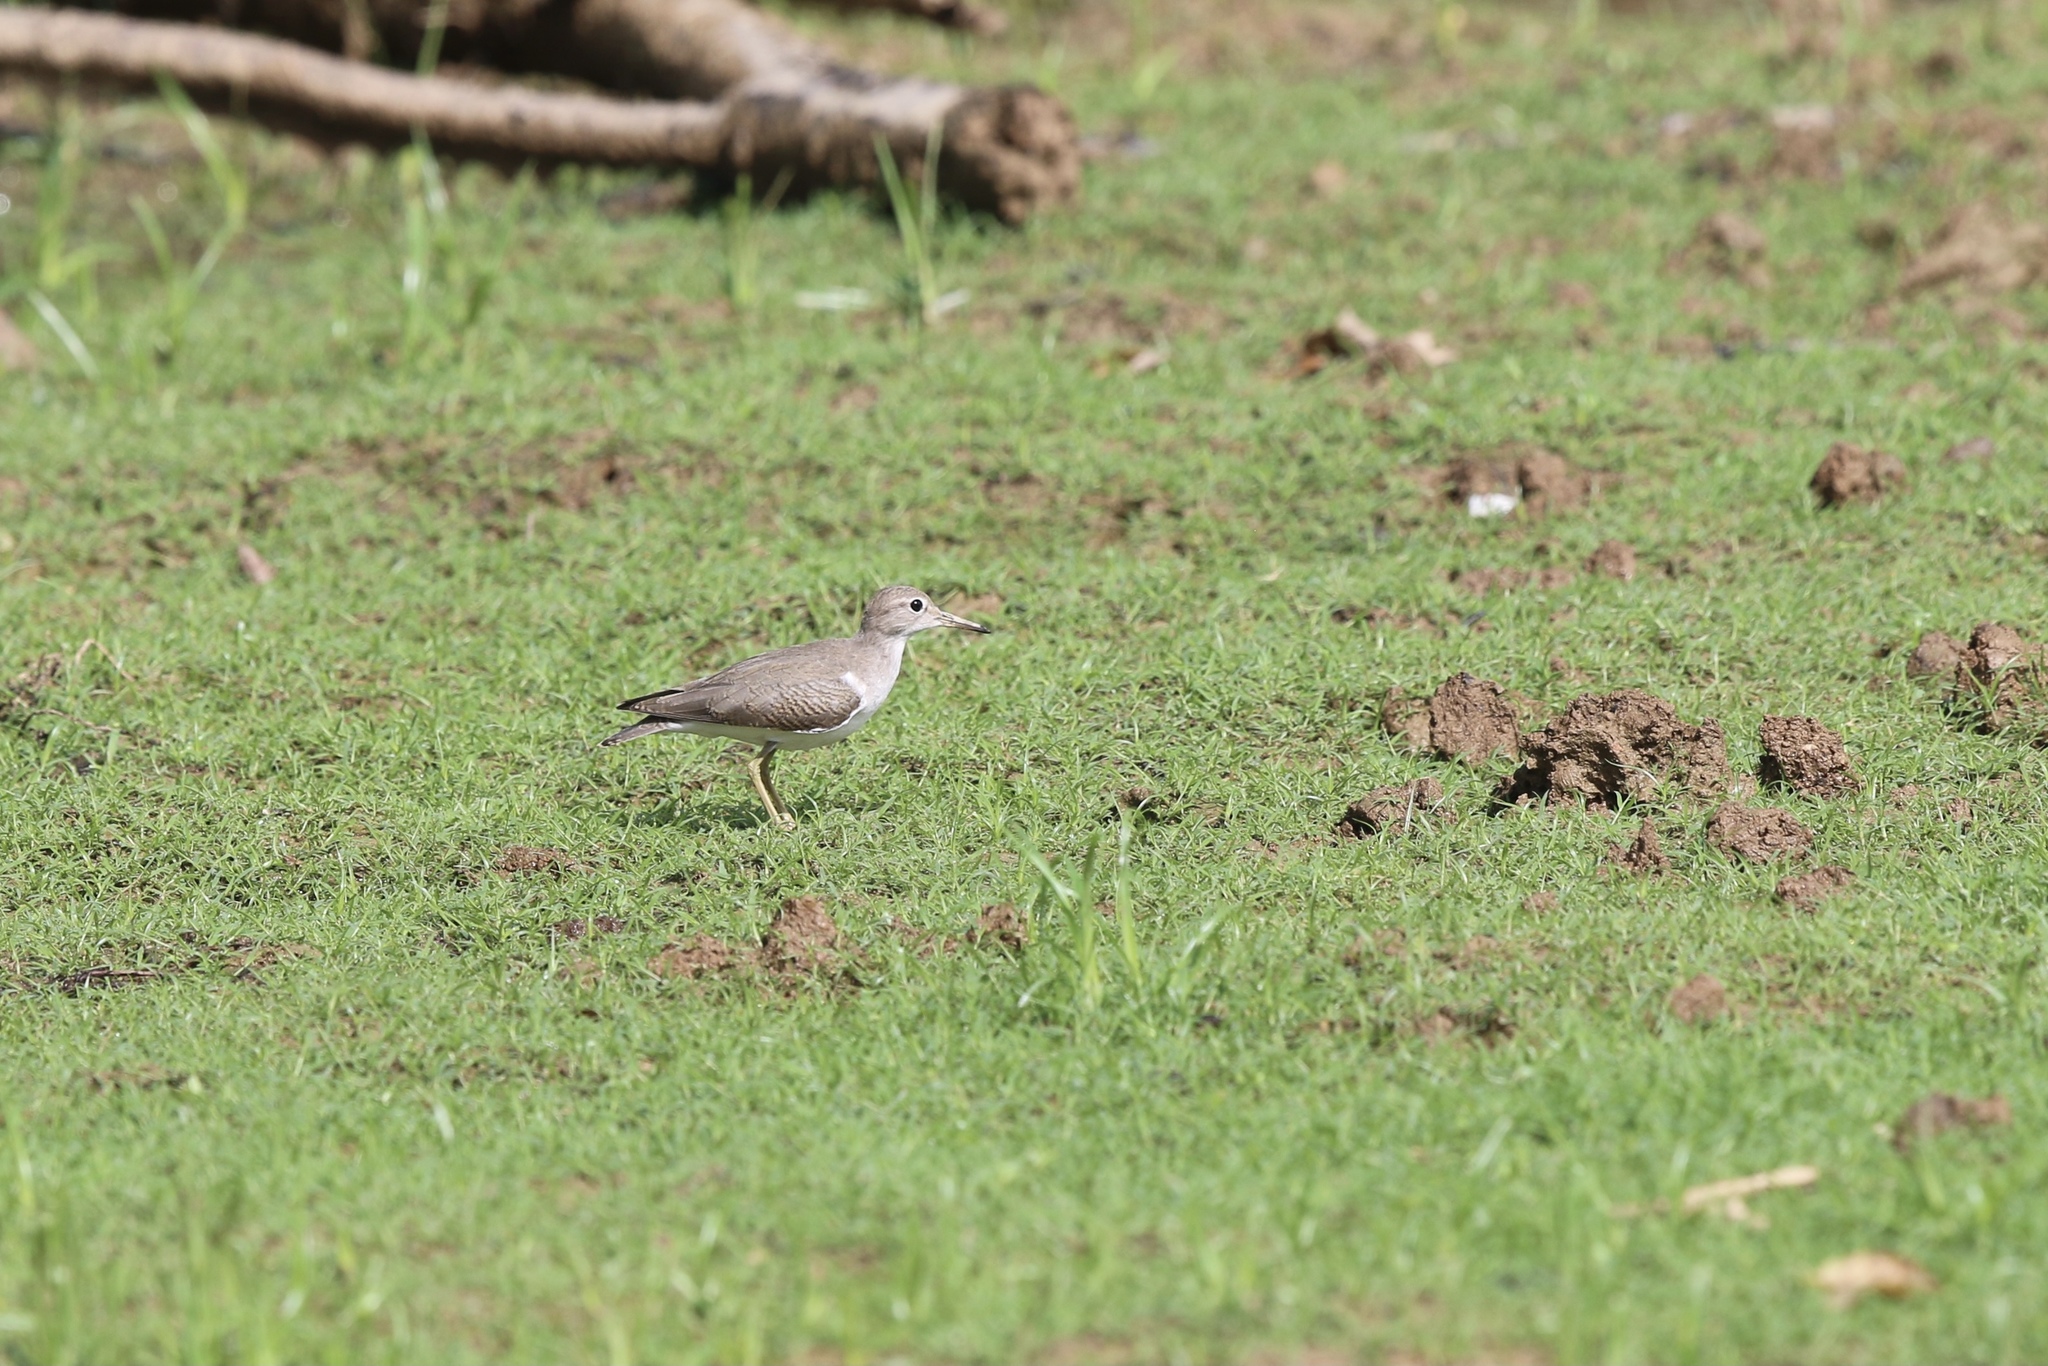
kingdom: Animalia
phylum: Chordata
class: Aves
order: Charadriiformes
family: Scolopacidae
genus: Actitis
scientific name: Actitis macularius
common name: Spotted sandpiper
